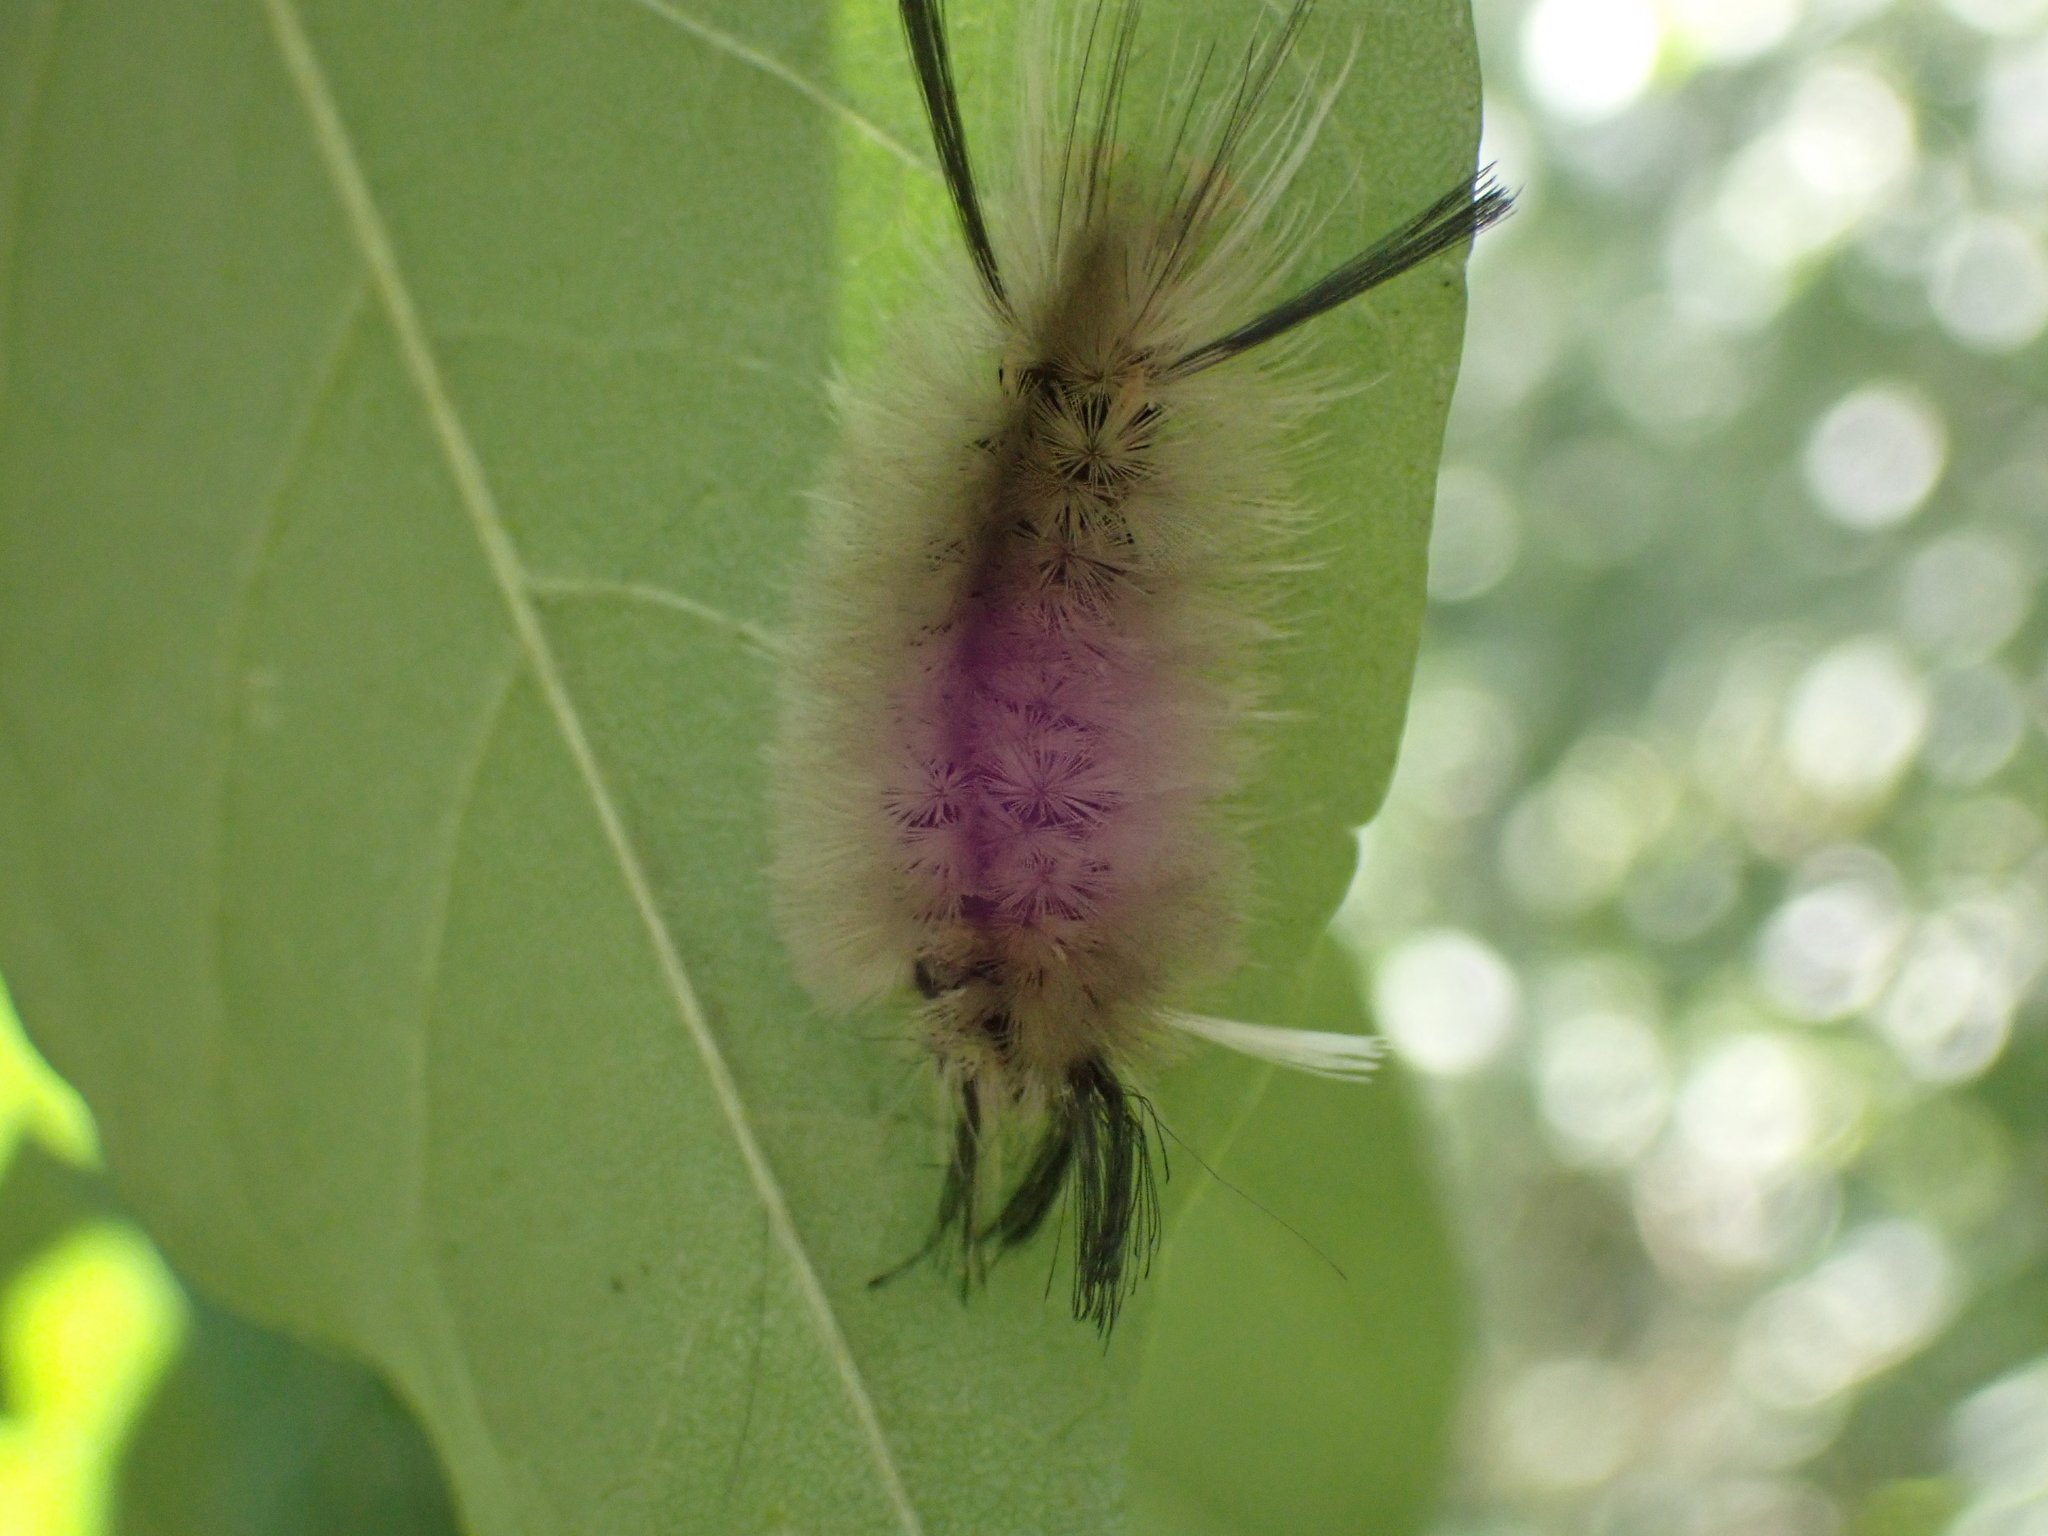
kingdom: Animalia
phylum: Arthropoda
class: Insecta
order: Lepidoptera
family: Erebidae
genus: Halysidota
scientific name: Halysidota tessellaris
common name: Banded tussock moth
